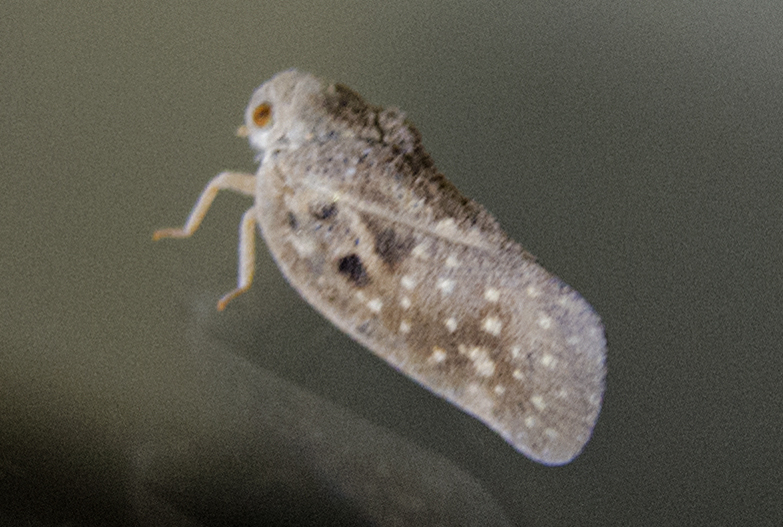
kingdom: Animalia
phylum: Arthropoda
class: Insecta
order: Hemiptera
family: Flatidae
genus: Metcalfa
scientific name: Metcalfa pruinosa
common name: Citrus flatid planthopper
